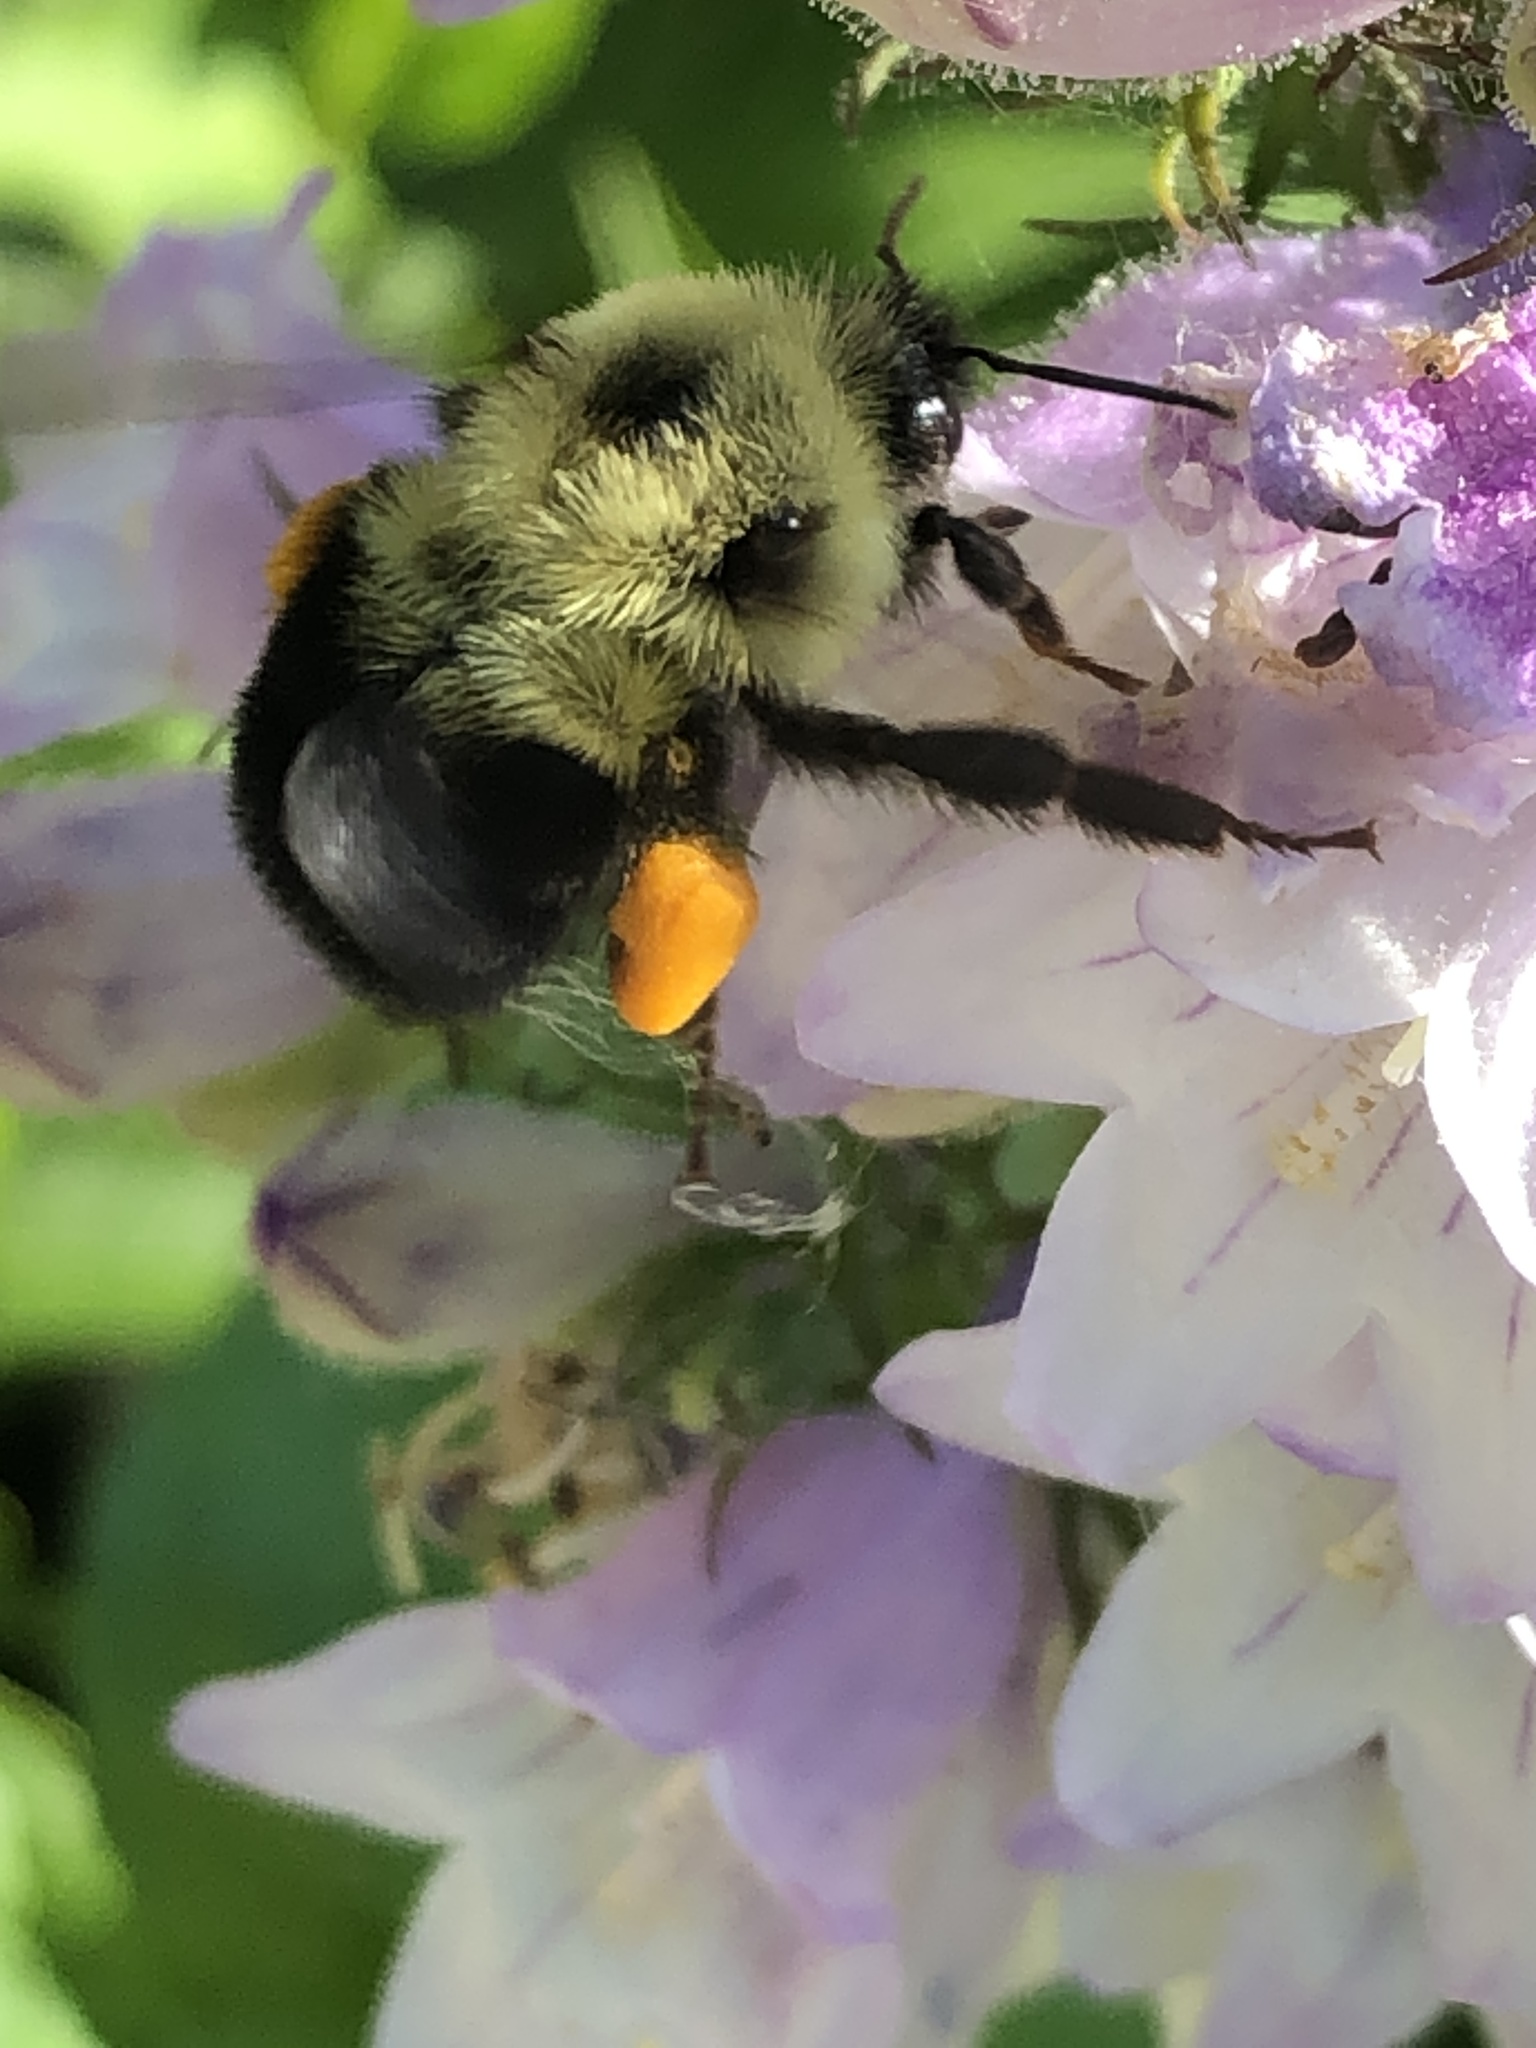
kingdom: Animalia
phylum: Arthropoda
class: Insecta
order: Hymenoptera
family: Apidae
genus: Bombus
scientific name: Bombus bimaculatus
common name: Two-spotted bumble bee
